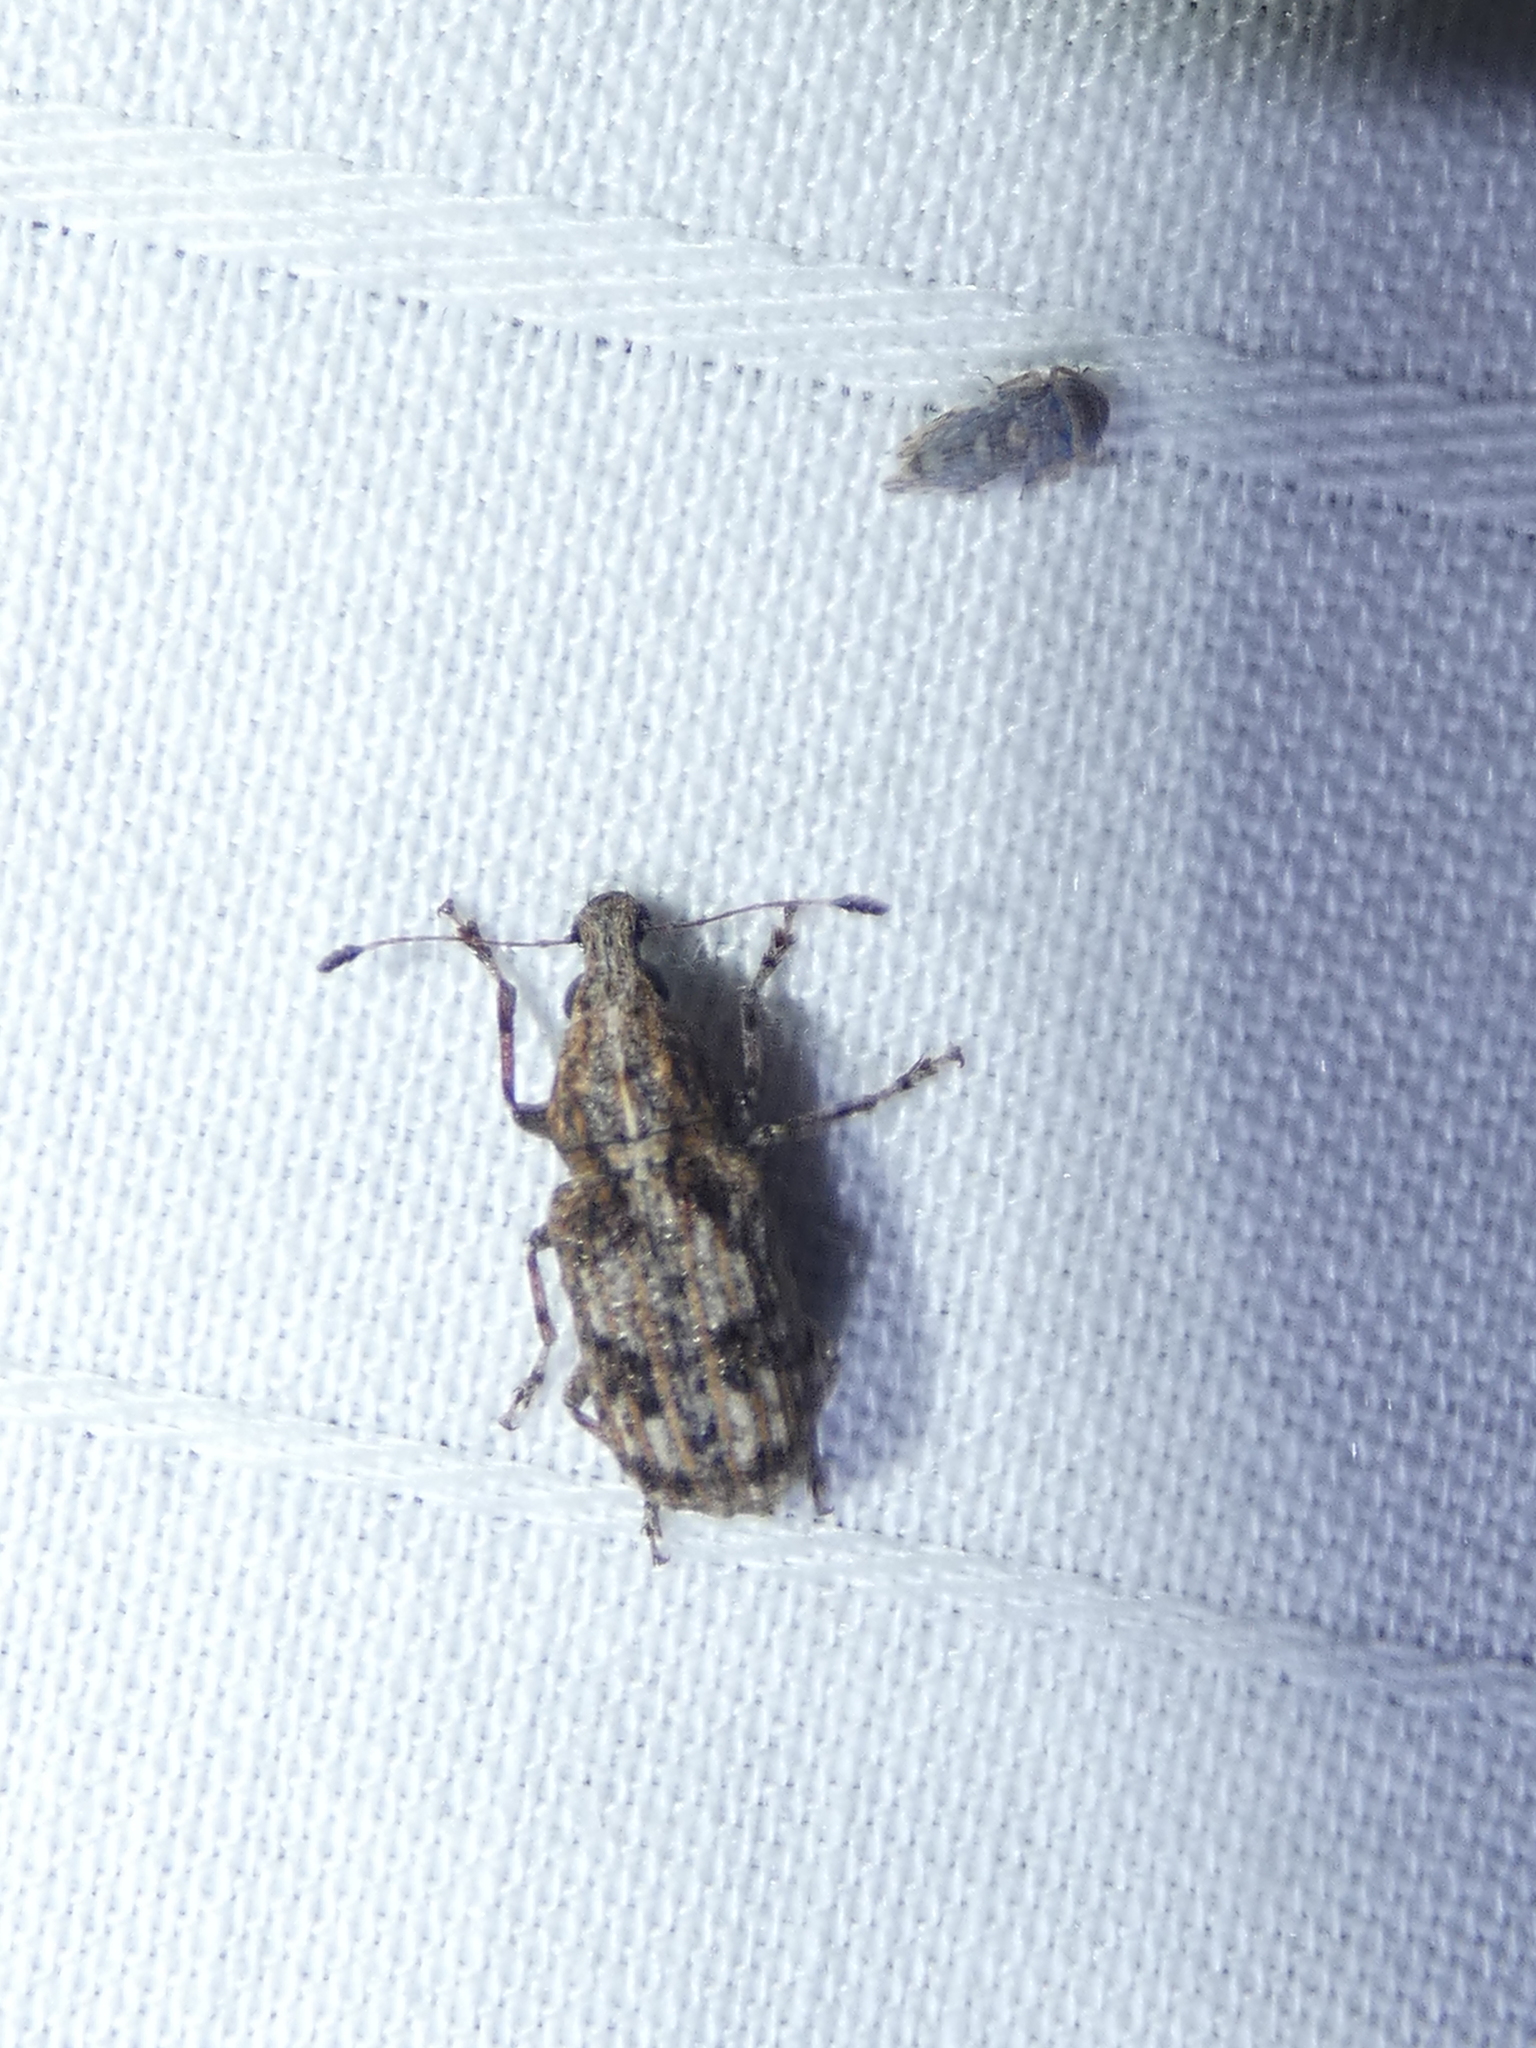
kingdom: Animalia
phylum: Arthropoda
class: Insecta
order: Coleoptera
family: Anthribidae
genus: Meconemus
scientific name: Meconemus infuscatus
